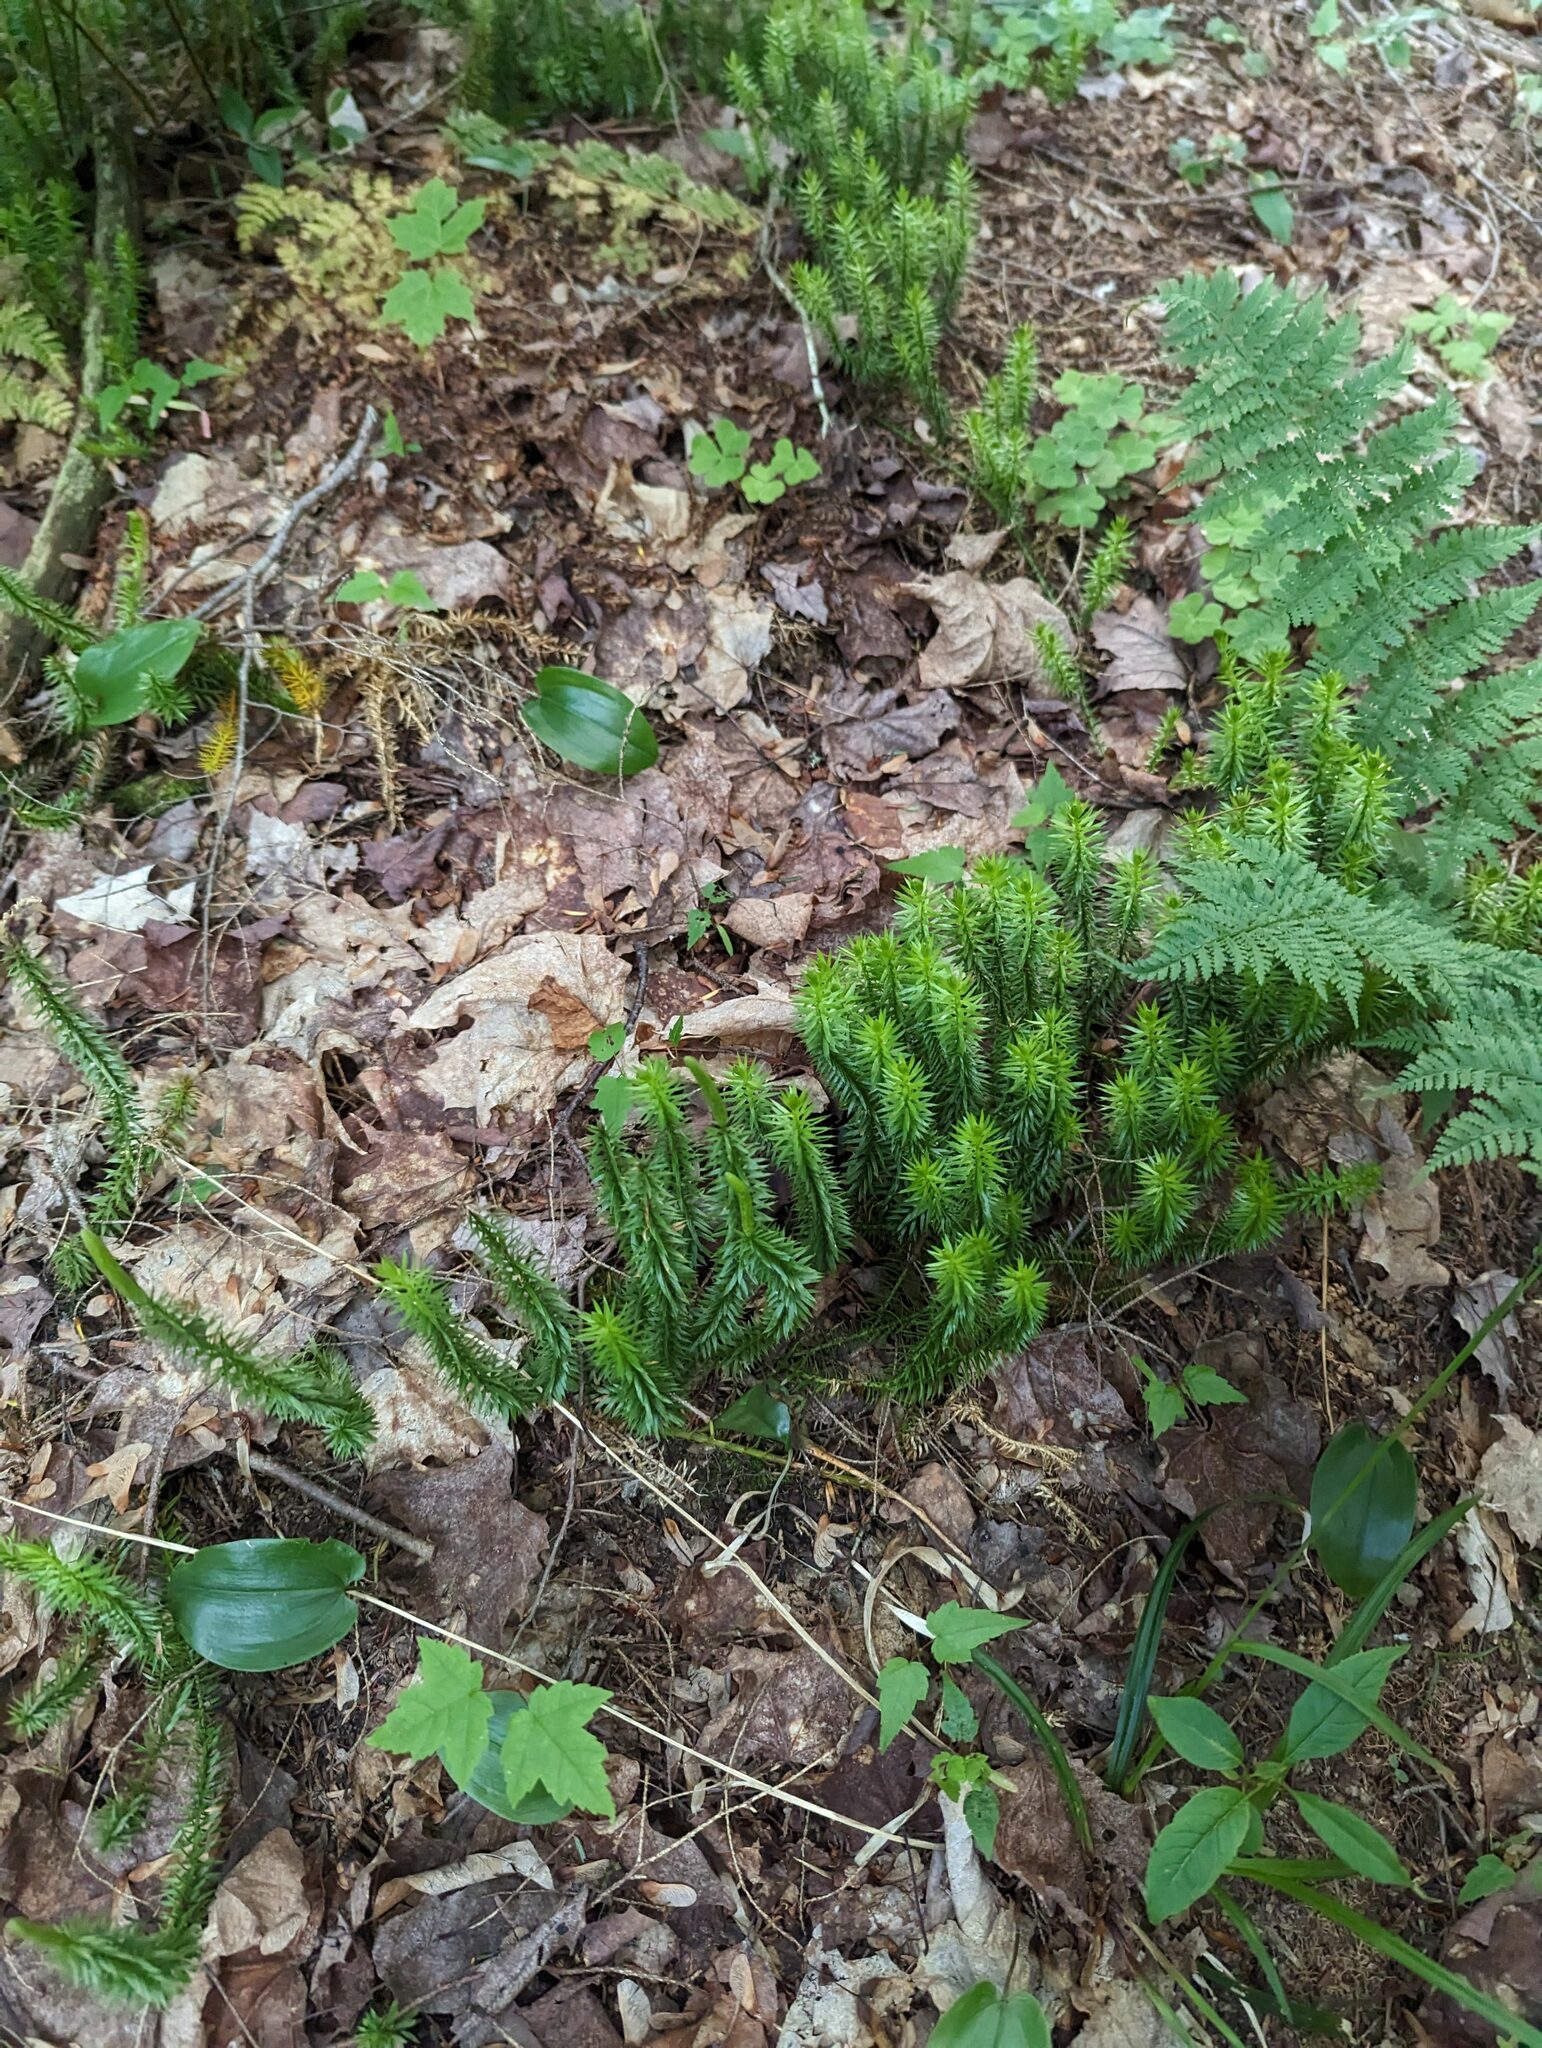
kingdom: Plantae
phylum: Tracheophyta
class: Liliopsida
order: Asparagales
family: Asparagaceae
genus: Maianthemum
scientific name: Maianthemum canadense
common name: False lily-of-the-valley
